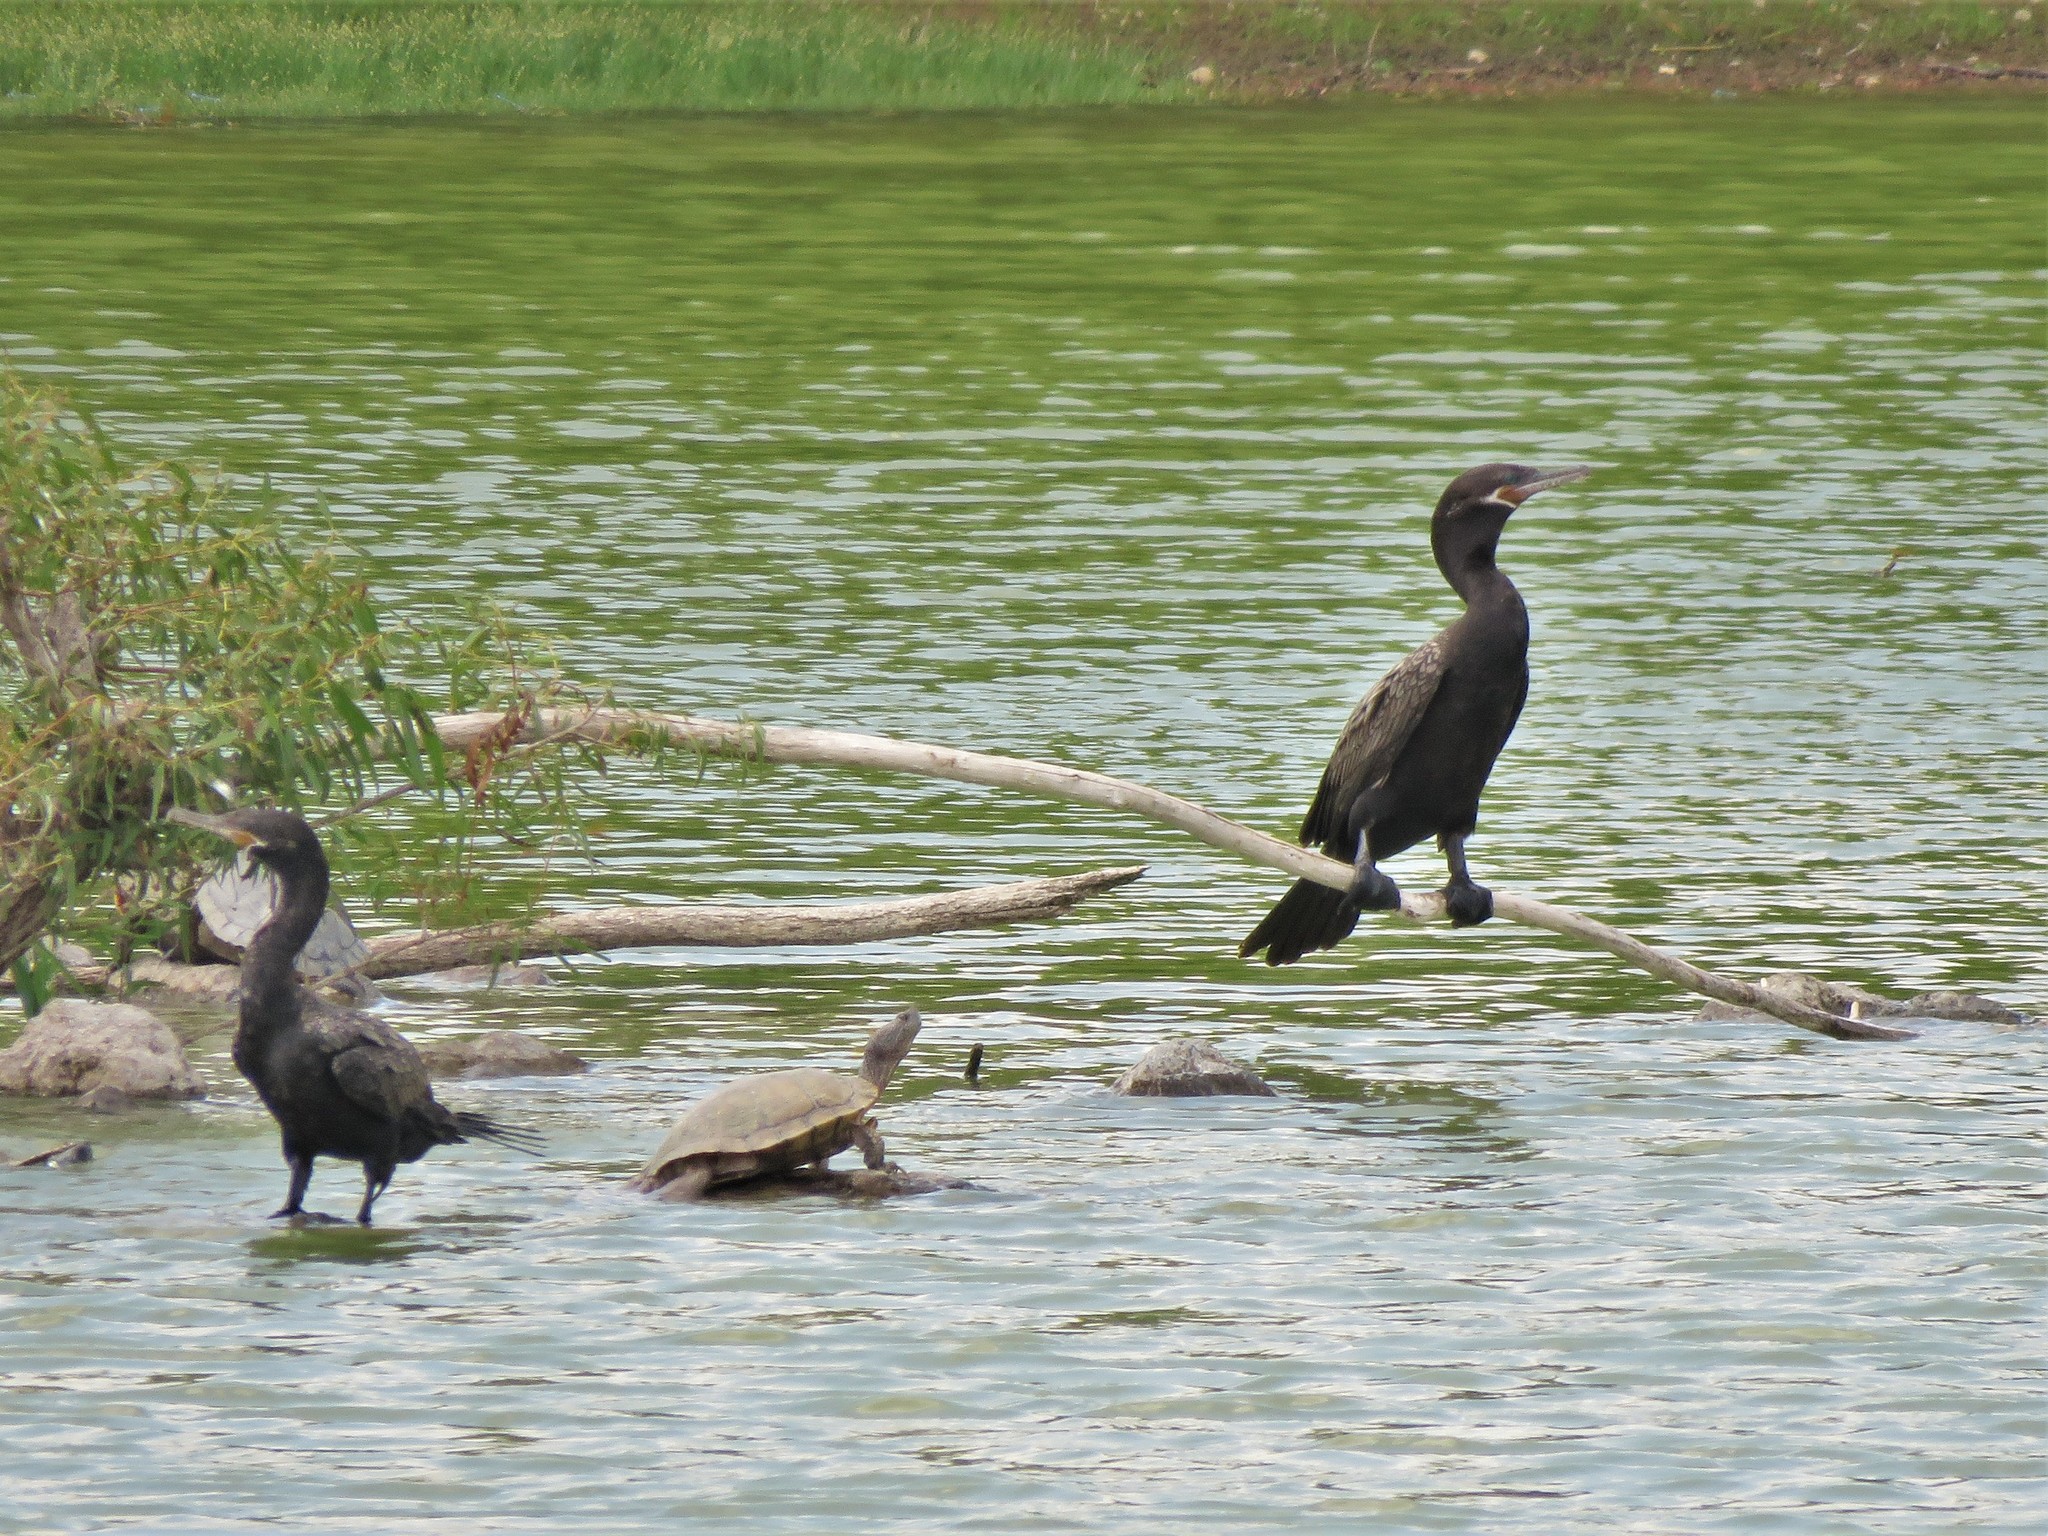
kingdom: Animalia
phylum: Chordata
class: Aves
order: Suliformes
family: Phalacrocoracidae
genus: Phalacrocorax
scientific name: Phalacrocorax brasilianus
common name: Neotropic cormorant
